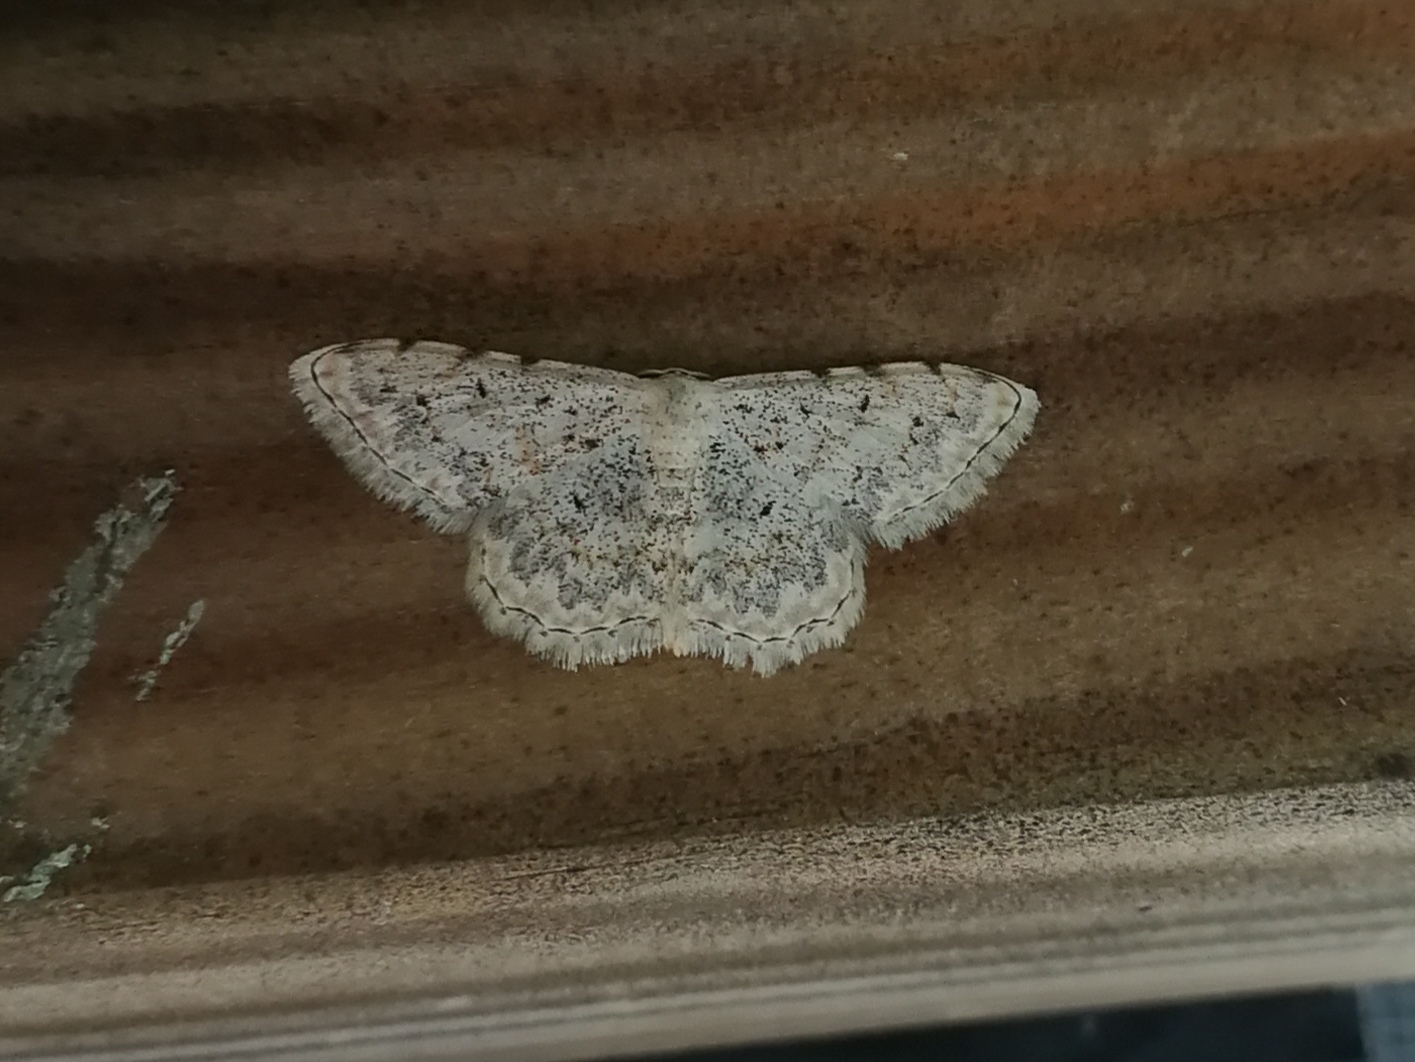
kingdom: Animalia
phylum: Arthropoda
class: Insecta
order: Lepidoptera
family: Geometridae
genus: Scopula
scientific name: Scopula submutata
